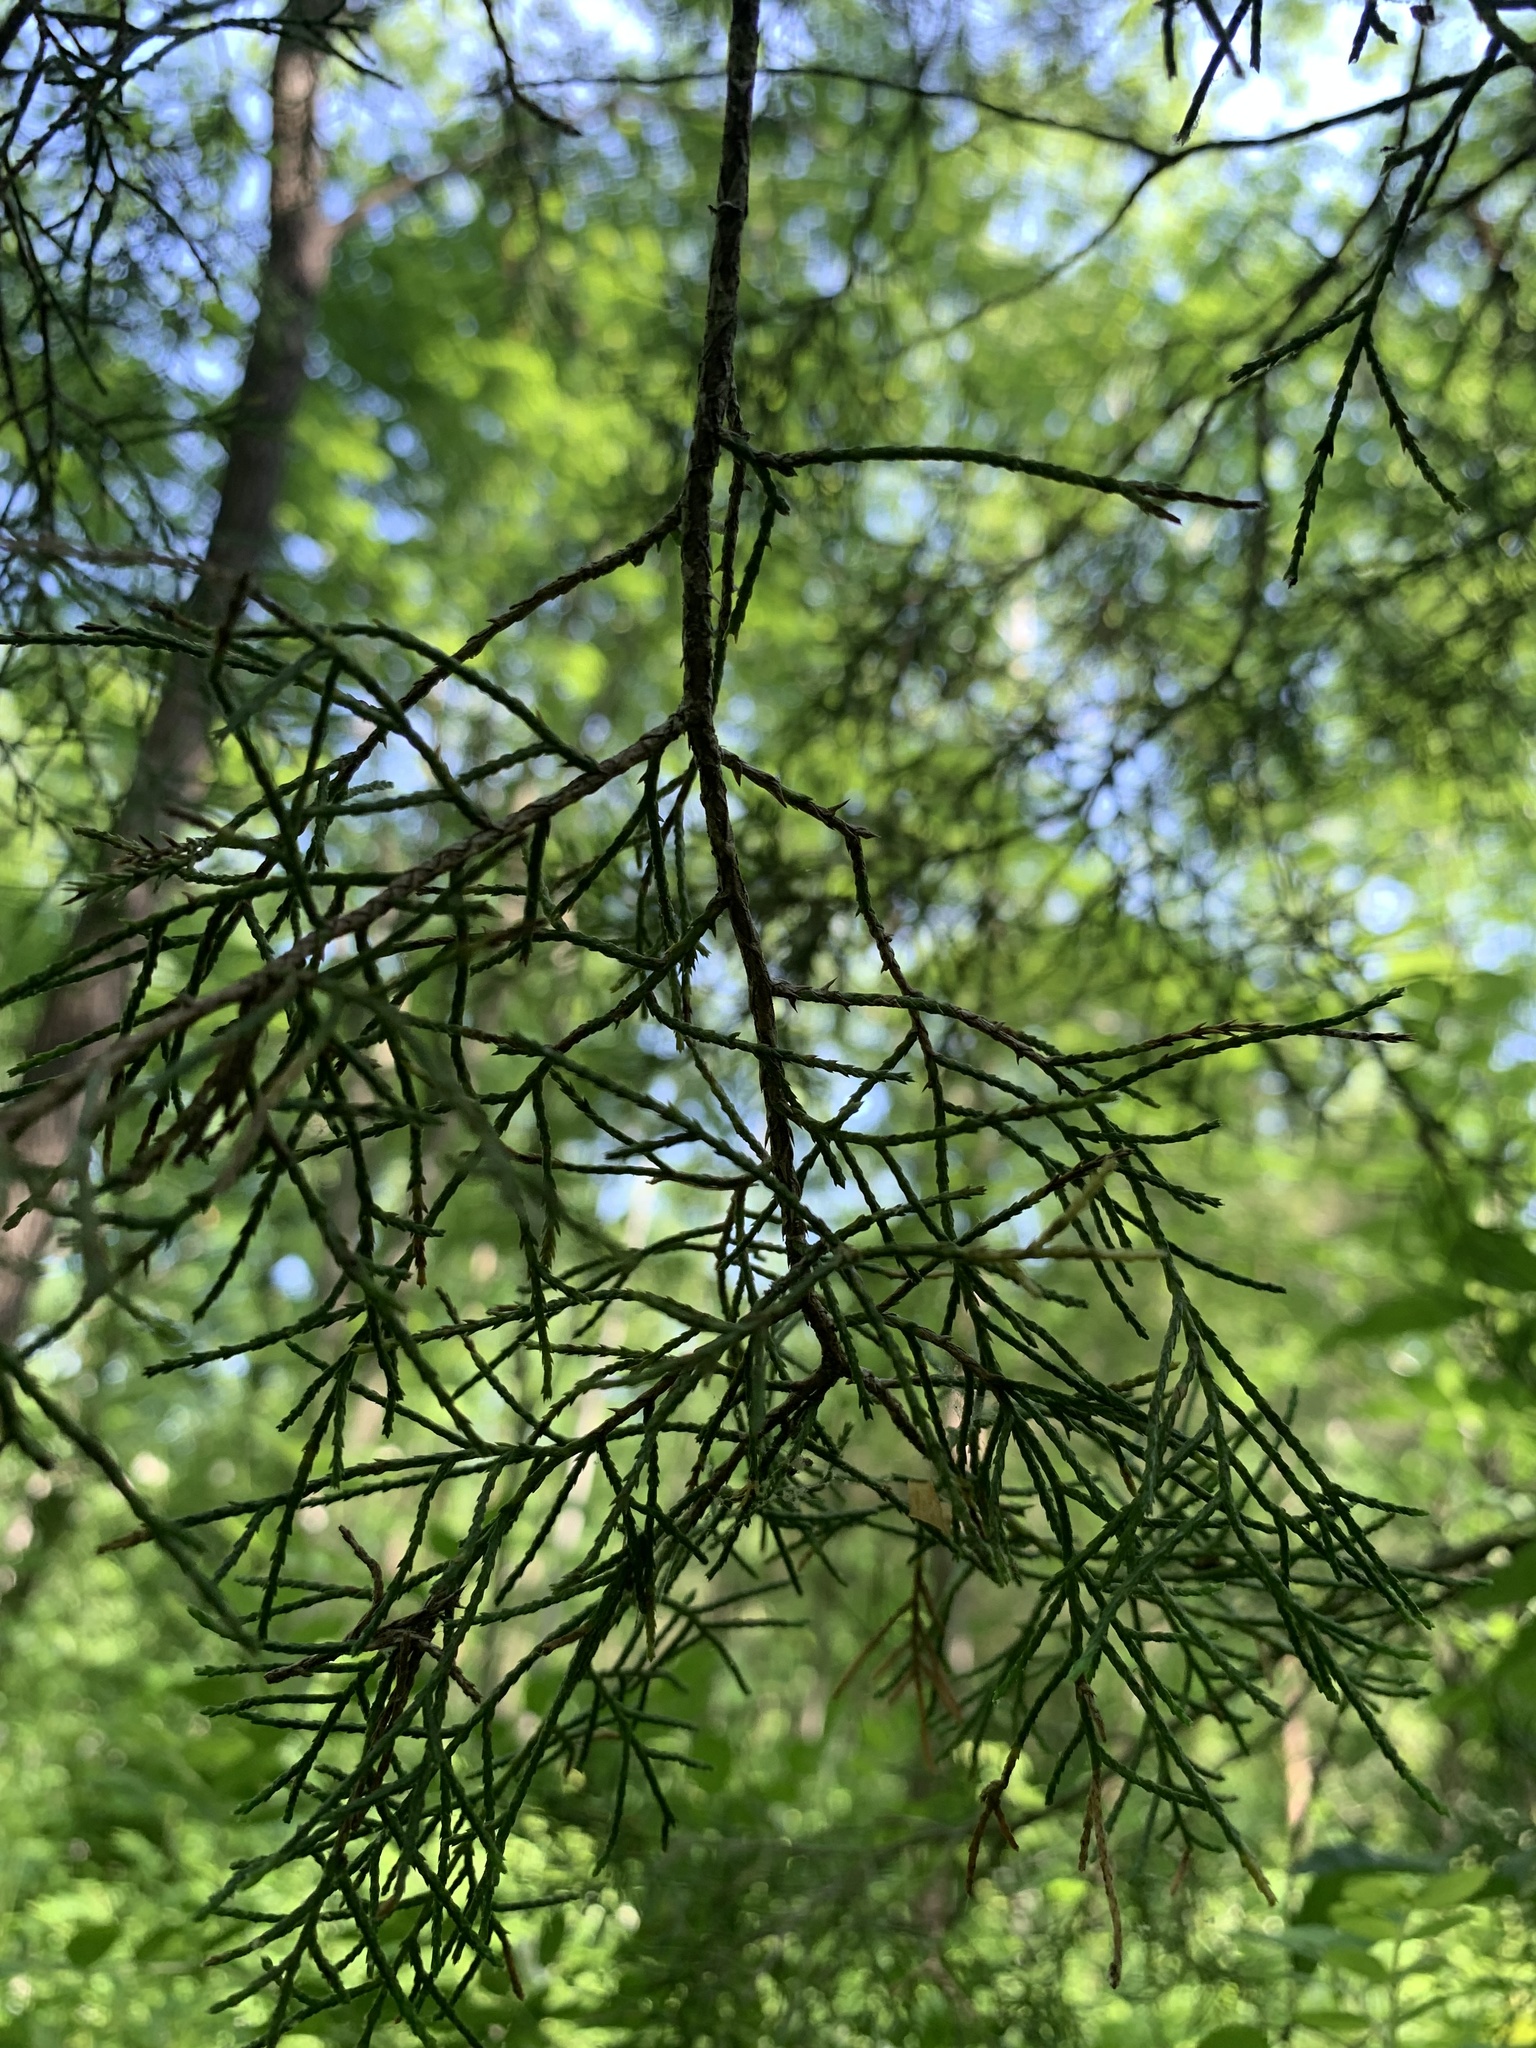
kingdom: Plantae
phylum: Tracheophyta
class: Pinopsida
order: Pinales
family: Cupressaceae
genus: Juniperus
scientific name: Juniperus virginiana
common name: Red juniper
